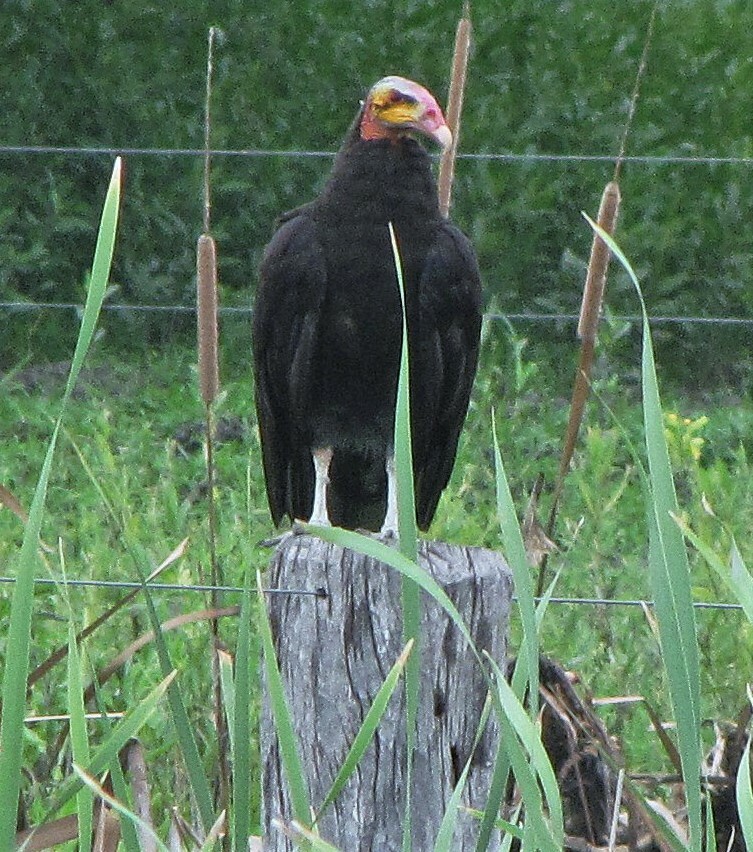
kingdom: Animalia
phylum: Chordata
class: Aves
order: Accipitriformes
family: Cathartidae
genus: Cathartes
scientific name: Cathartes burrovianus
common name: Lesser yellow-headed vulture
